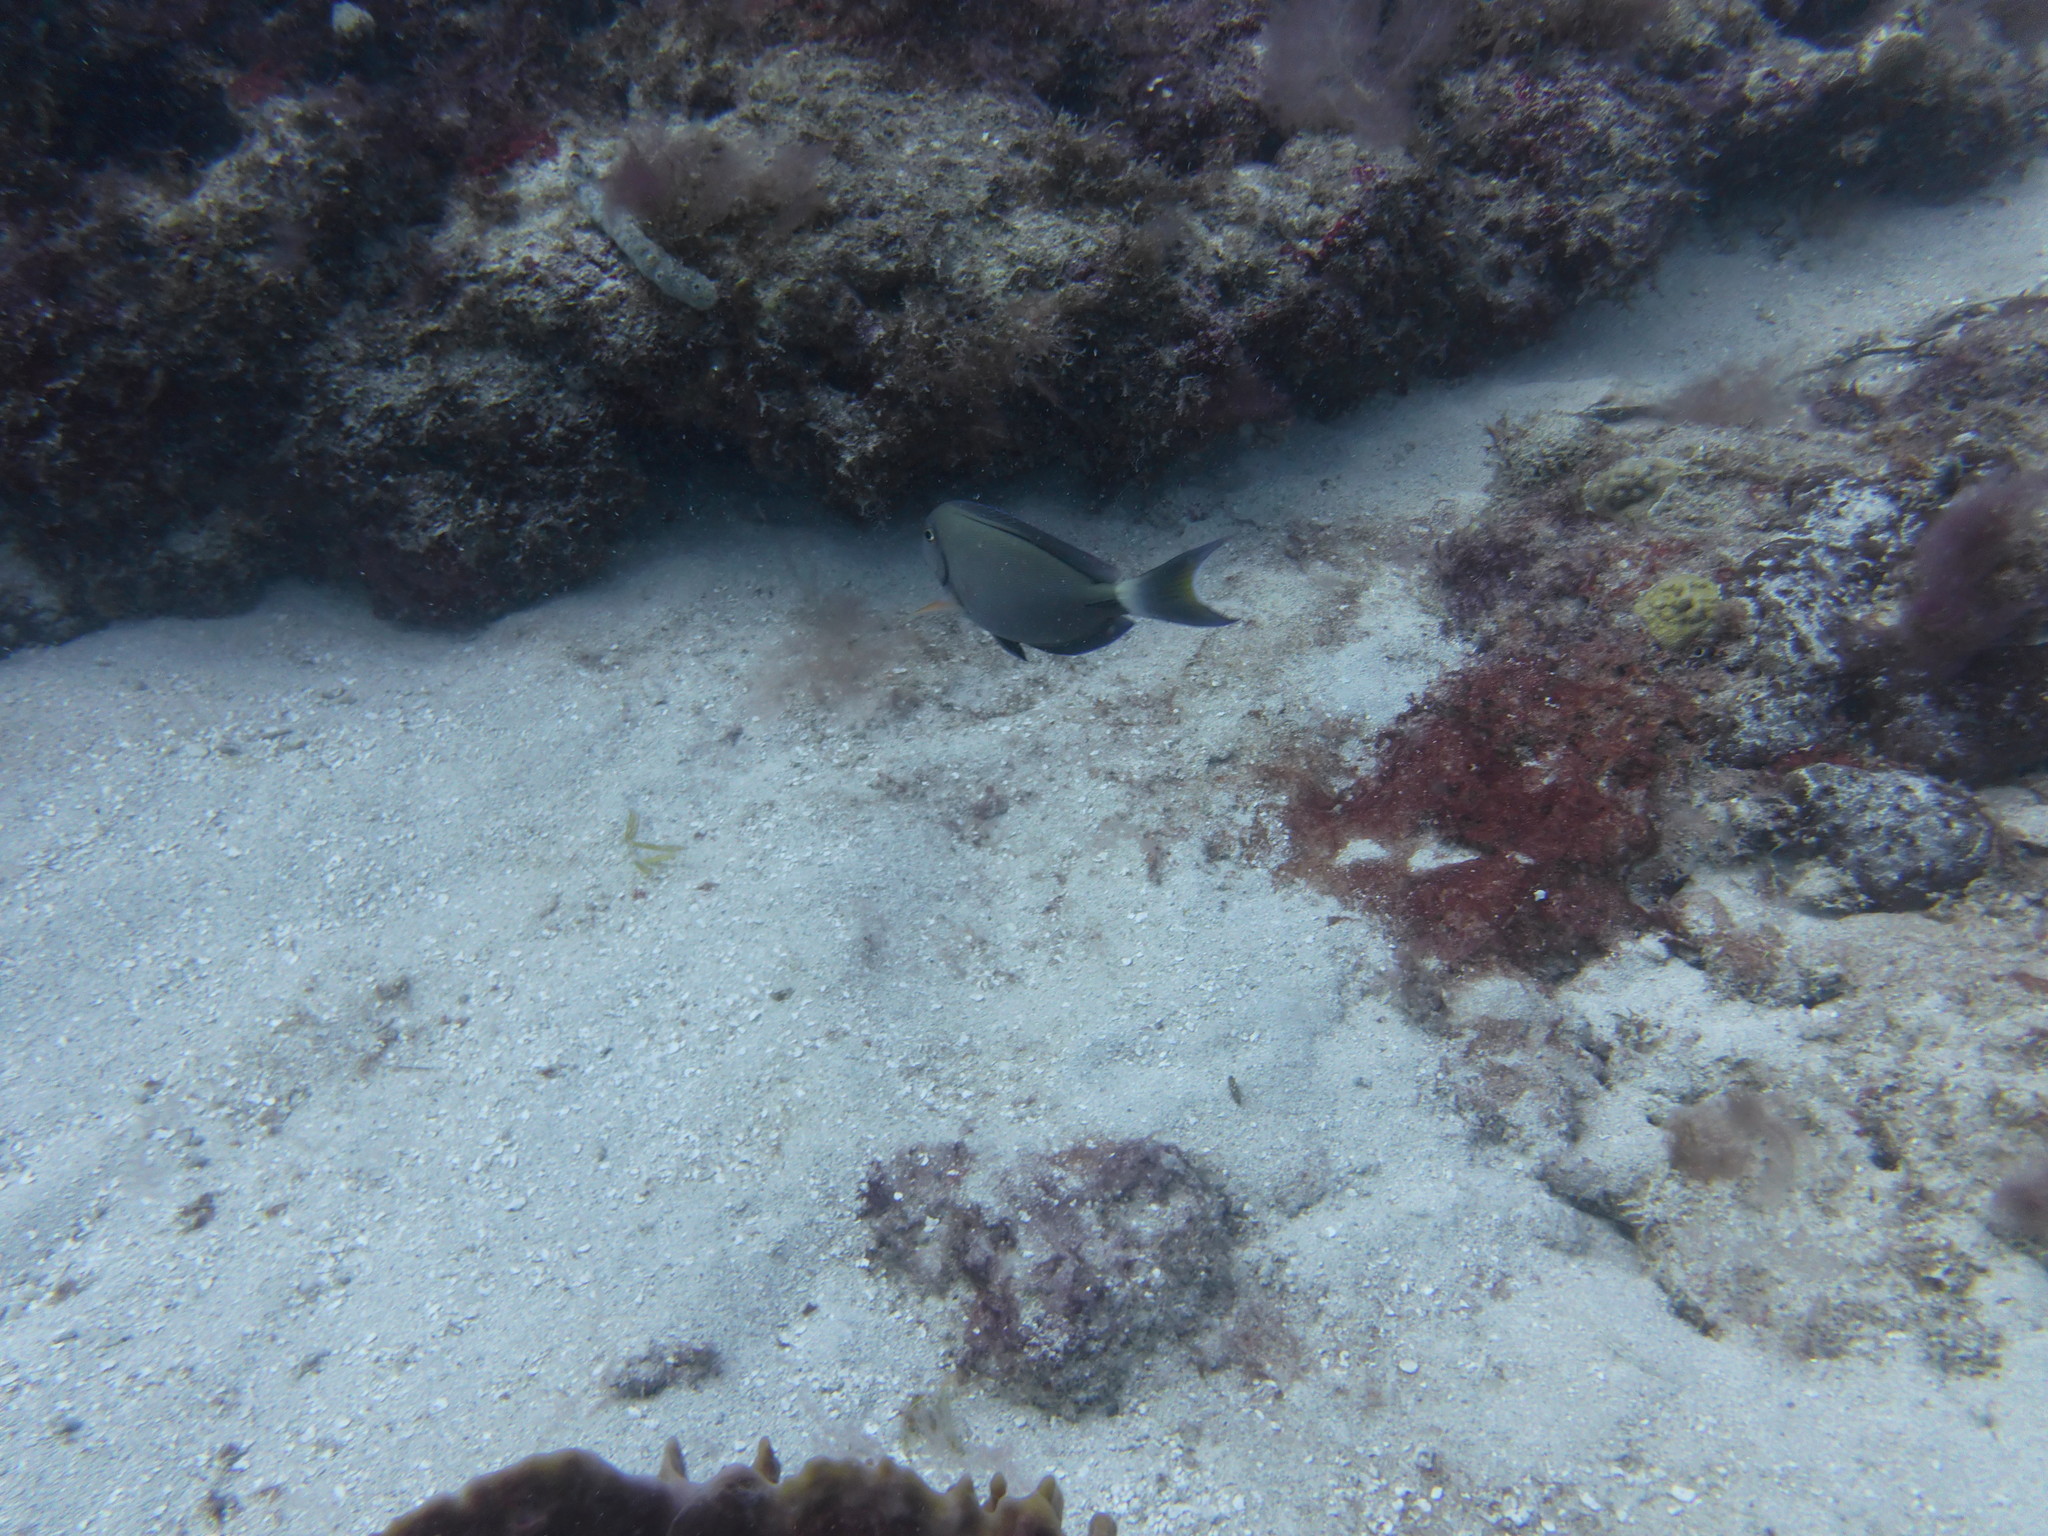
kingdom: Animalia
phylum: Chordata
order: Perciformes
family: Acanthuridae
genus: Acanthurus
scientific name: Acanthurus bahianus
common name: Ocean surgeon
